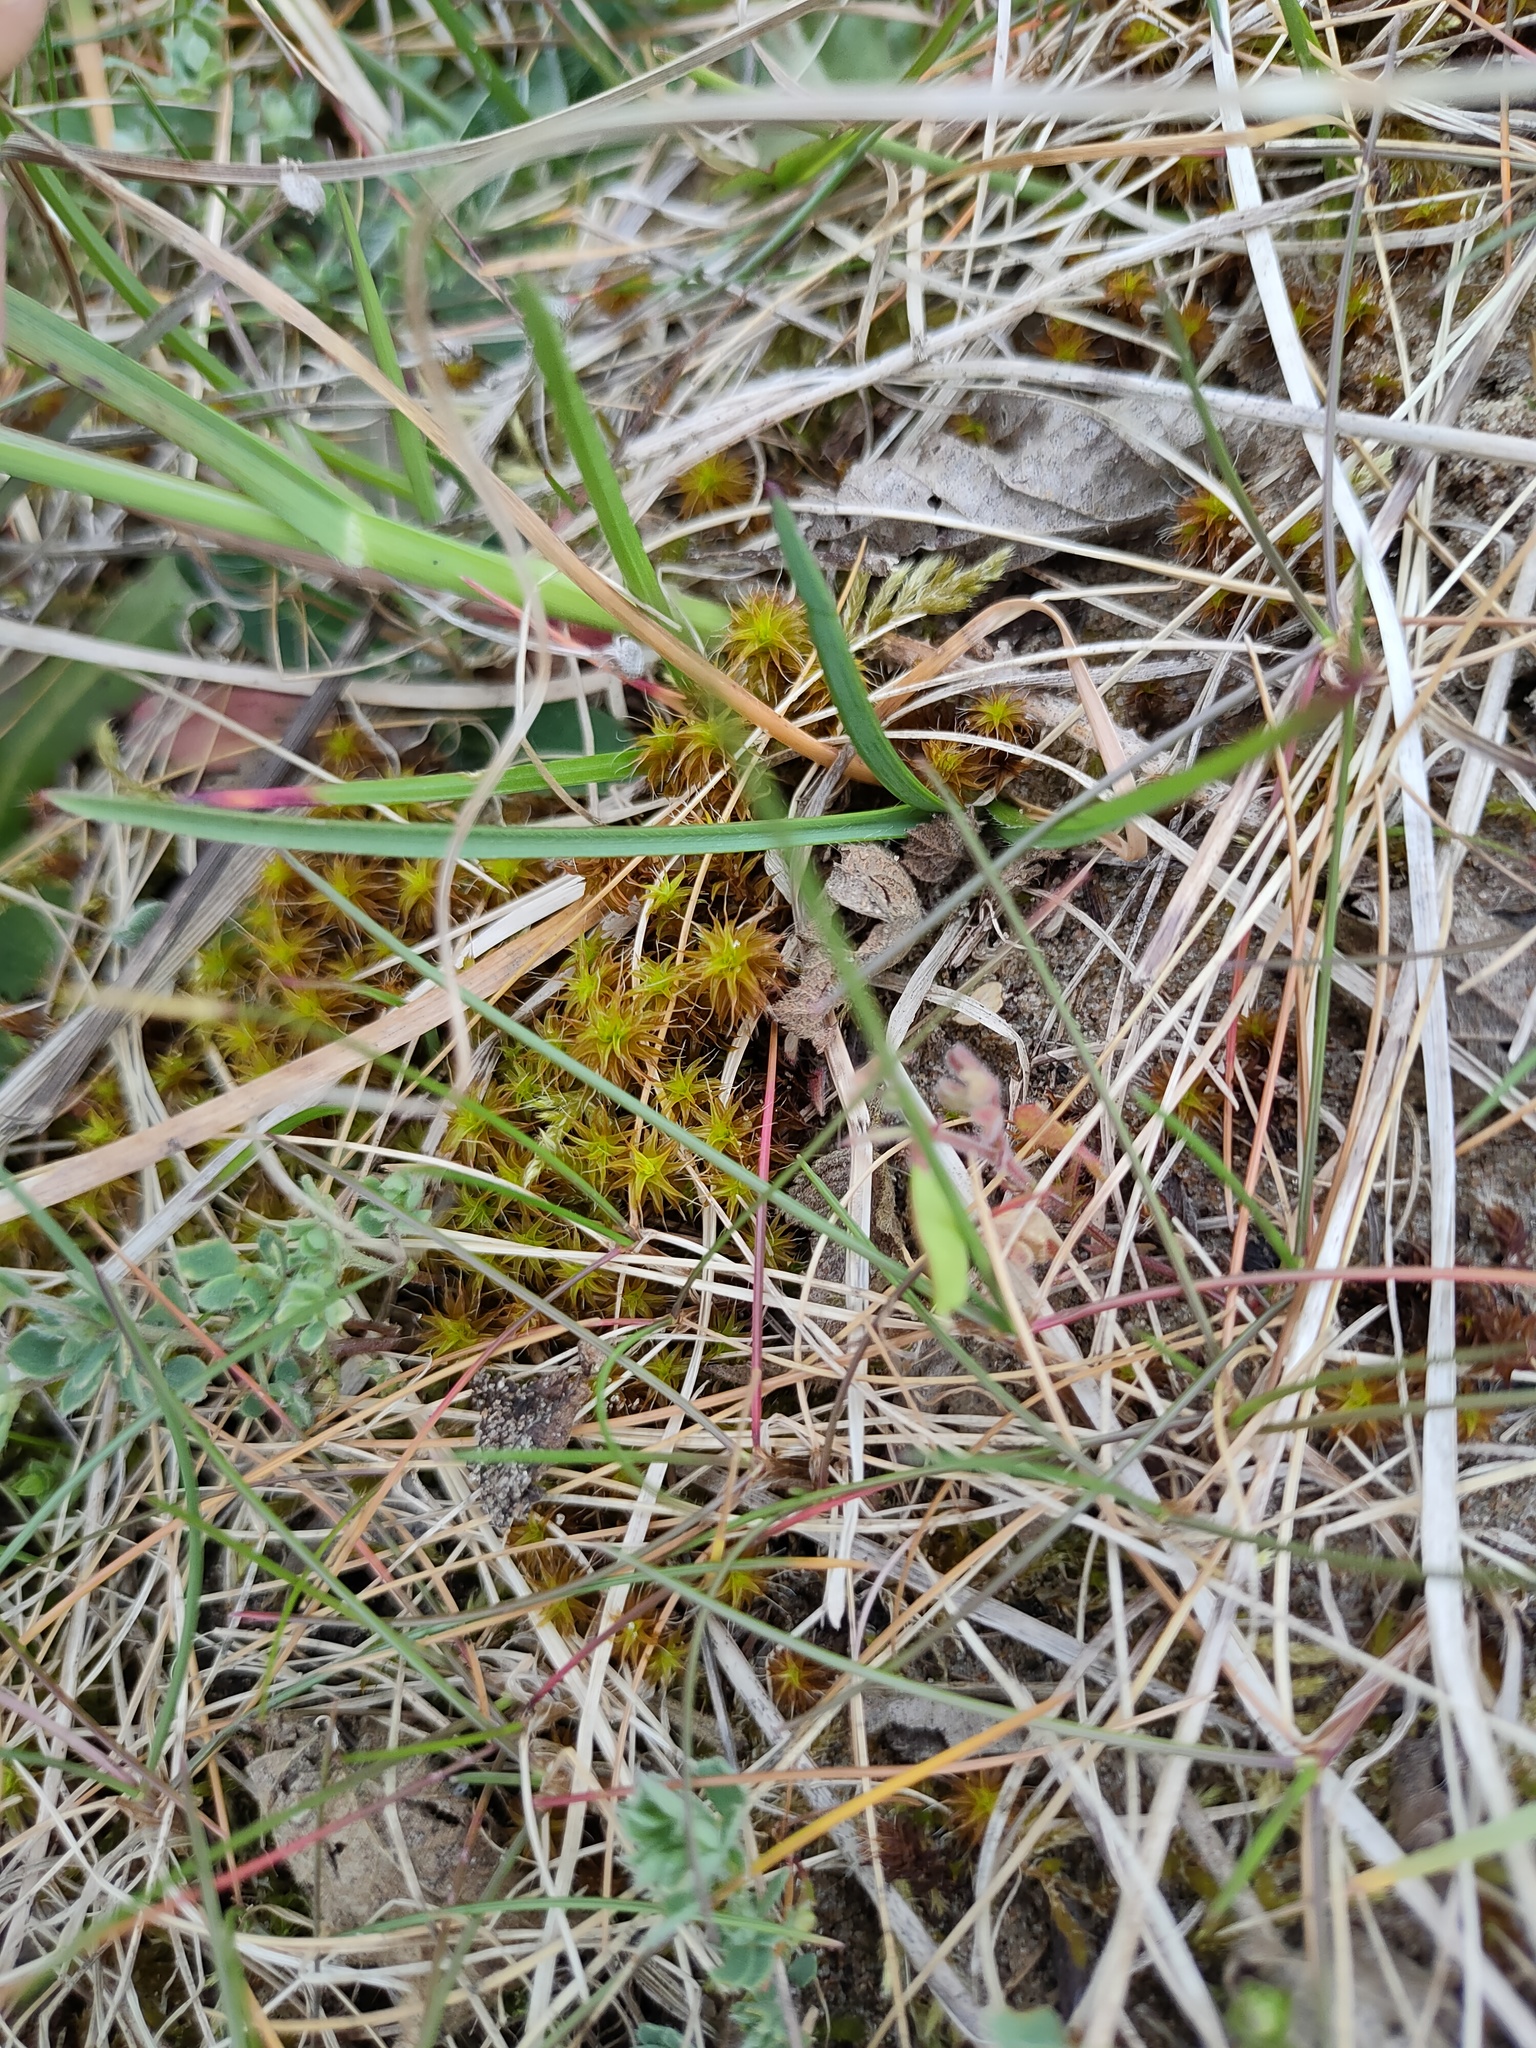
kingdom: Plantae
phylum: Bryophyta
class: Bryopsida
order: Pottiales
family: Pottiaceae
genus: Syntrichia
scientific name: Syntrichia ruralis
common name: Sidewalk screw moss
